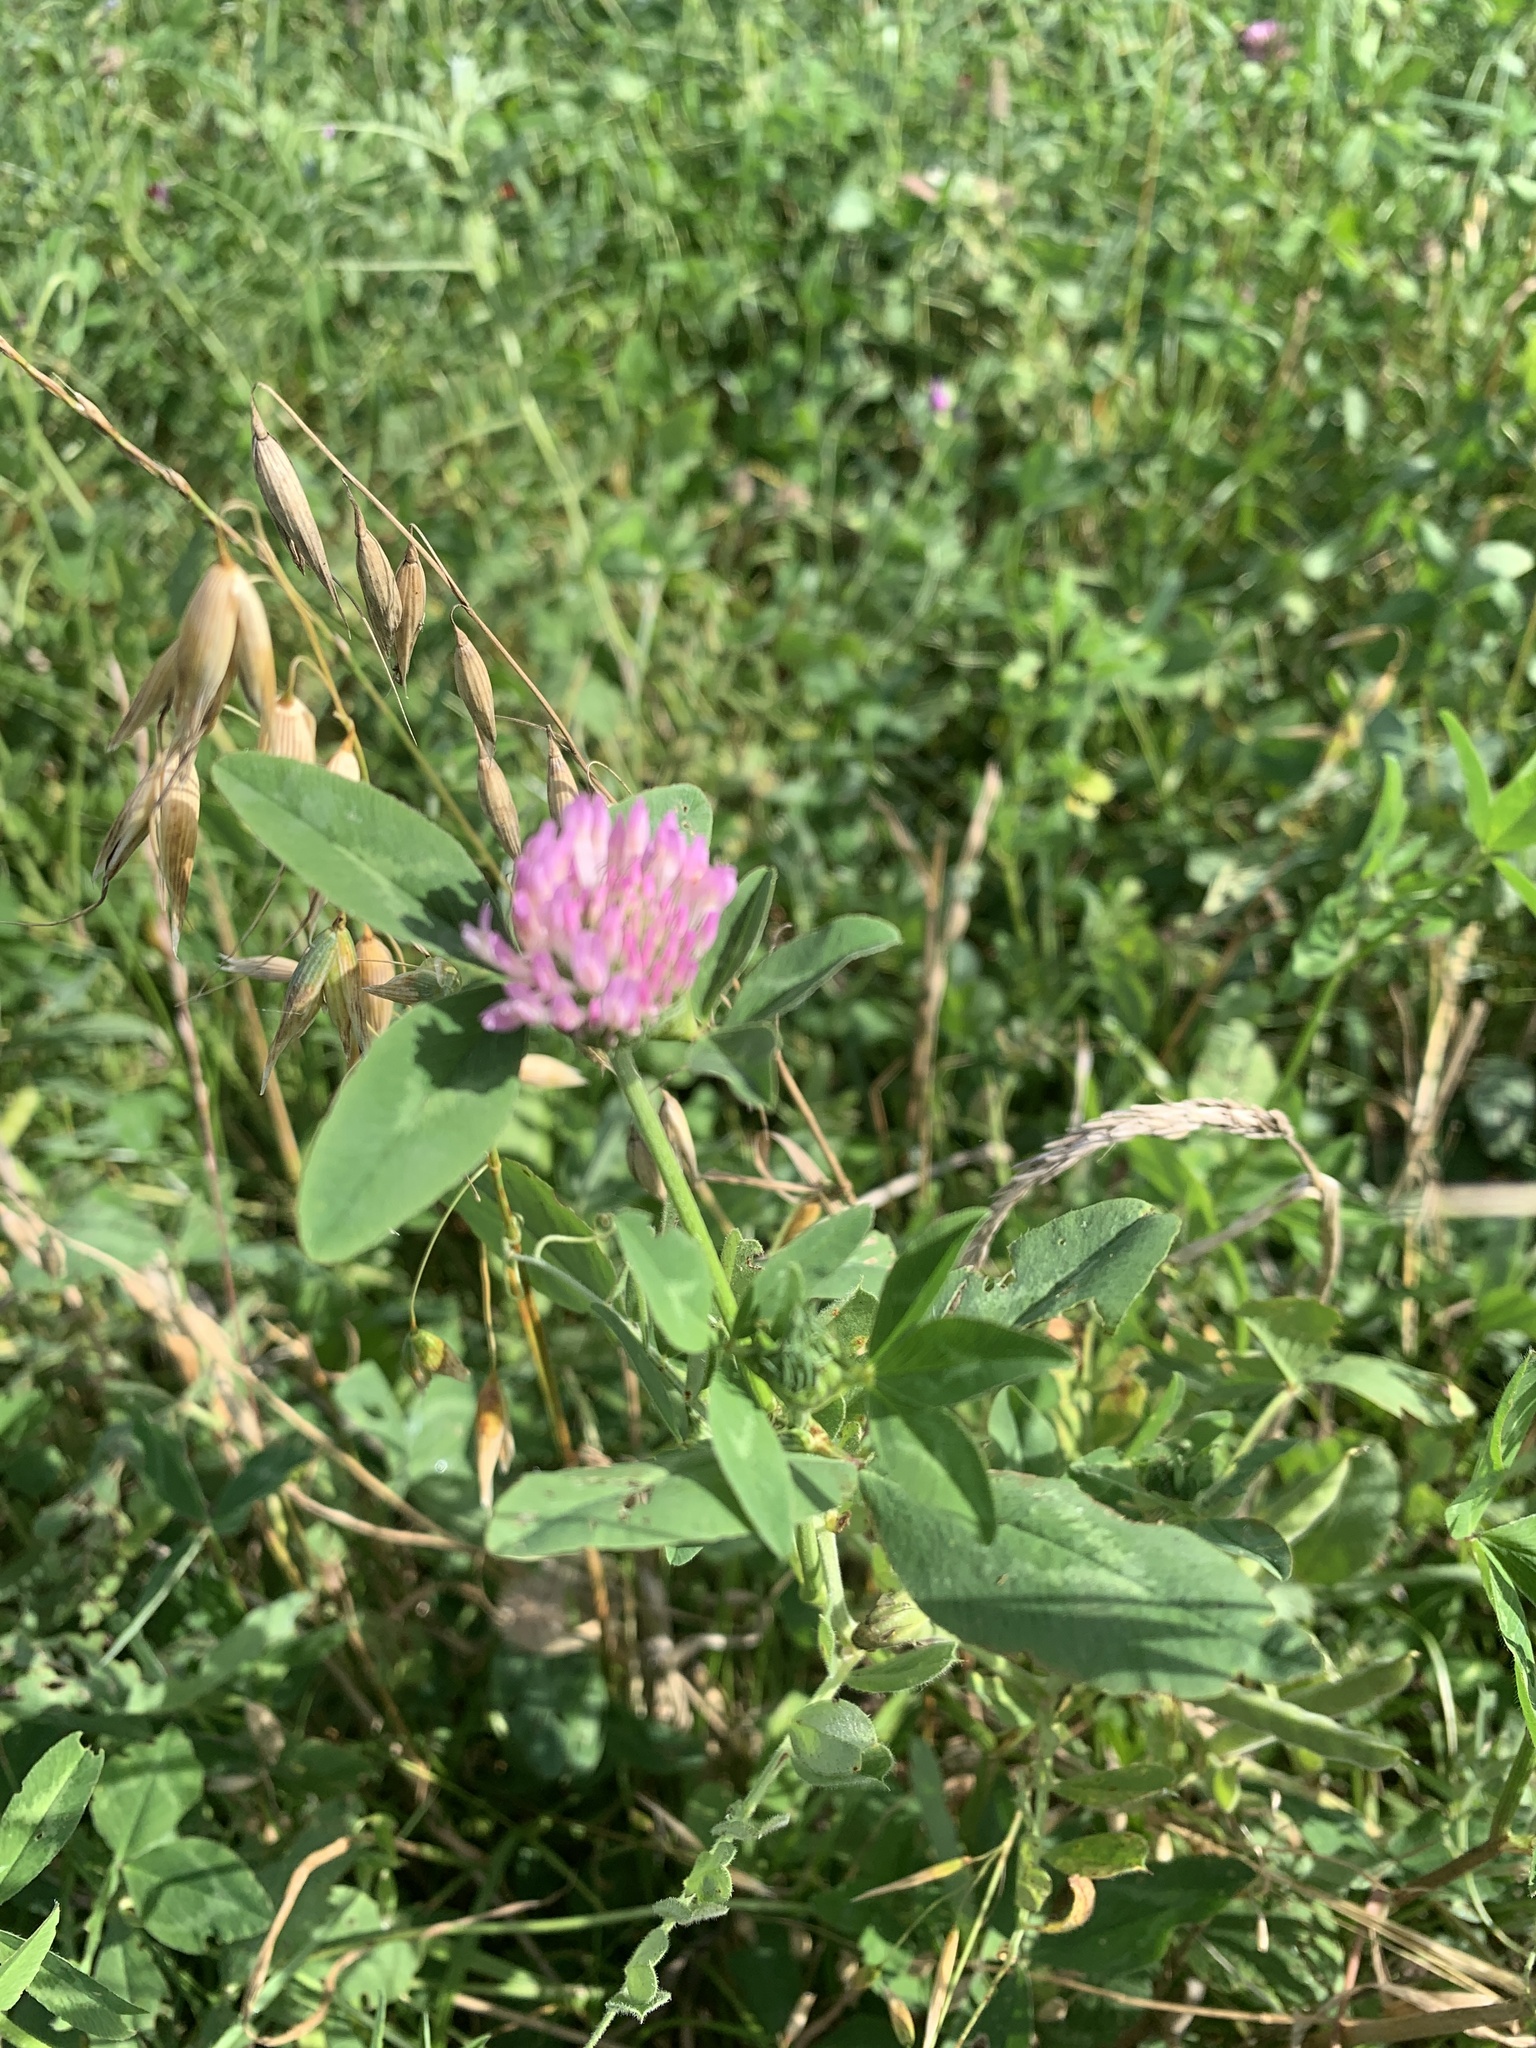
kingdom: Plantae
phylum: Tracheophyta
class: Magnoliopsida
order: Fabales
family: Fabaceae
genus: Trifolium
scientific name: Trifolium pratense
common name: Red clover
